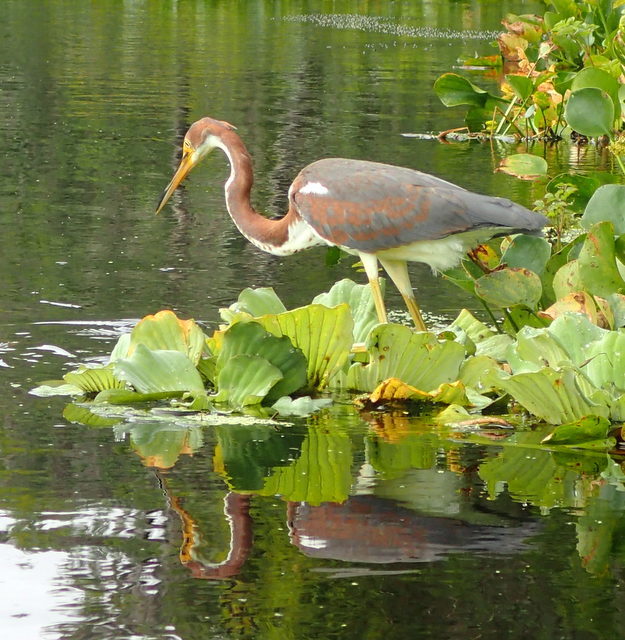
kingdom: Animalia
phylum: Chordata
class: Aves
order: Pelecaniformes
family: Ardeidae
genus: Egretta
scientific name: Egretta tricolor
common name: Tricolored heron
